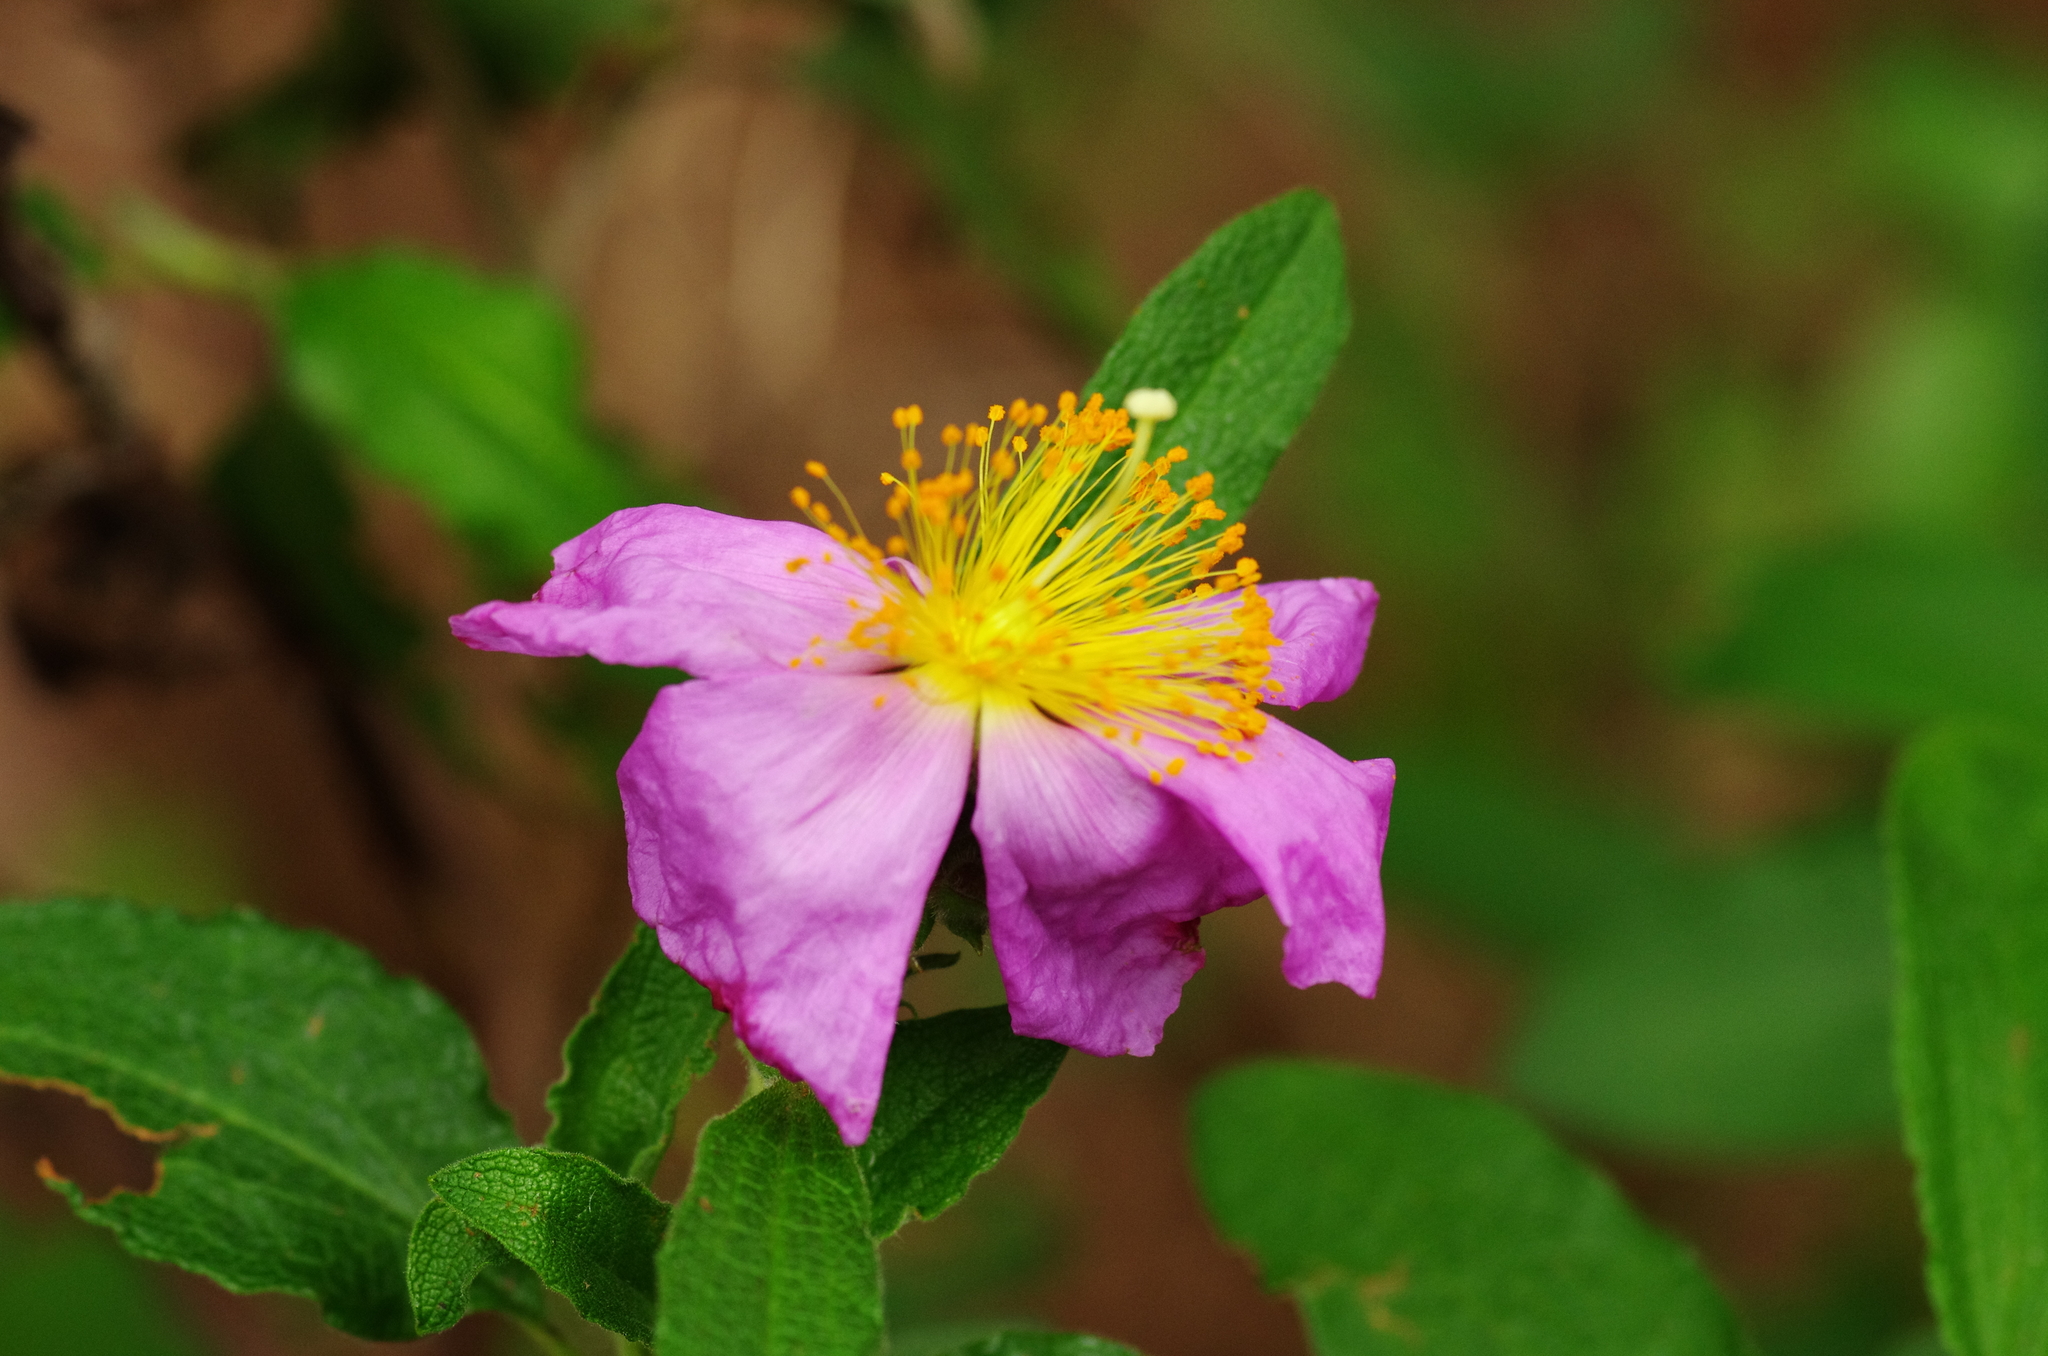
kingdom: Plantae
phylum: Tracheophyta
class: Magnoliopsida
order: Malvales
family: Cistaceae
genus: Cistus
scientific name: Cistus symphytifolius
